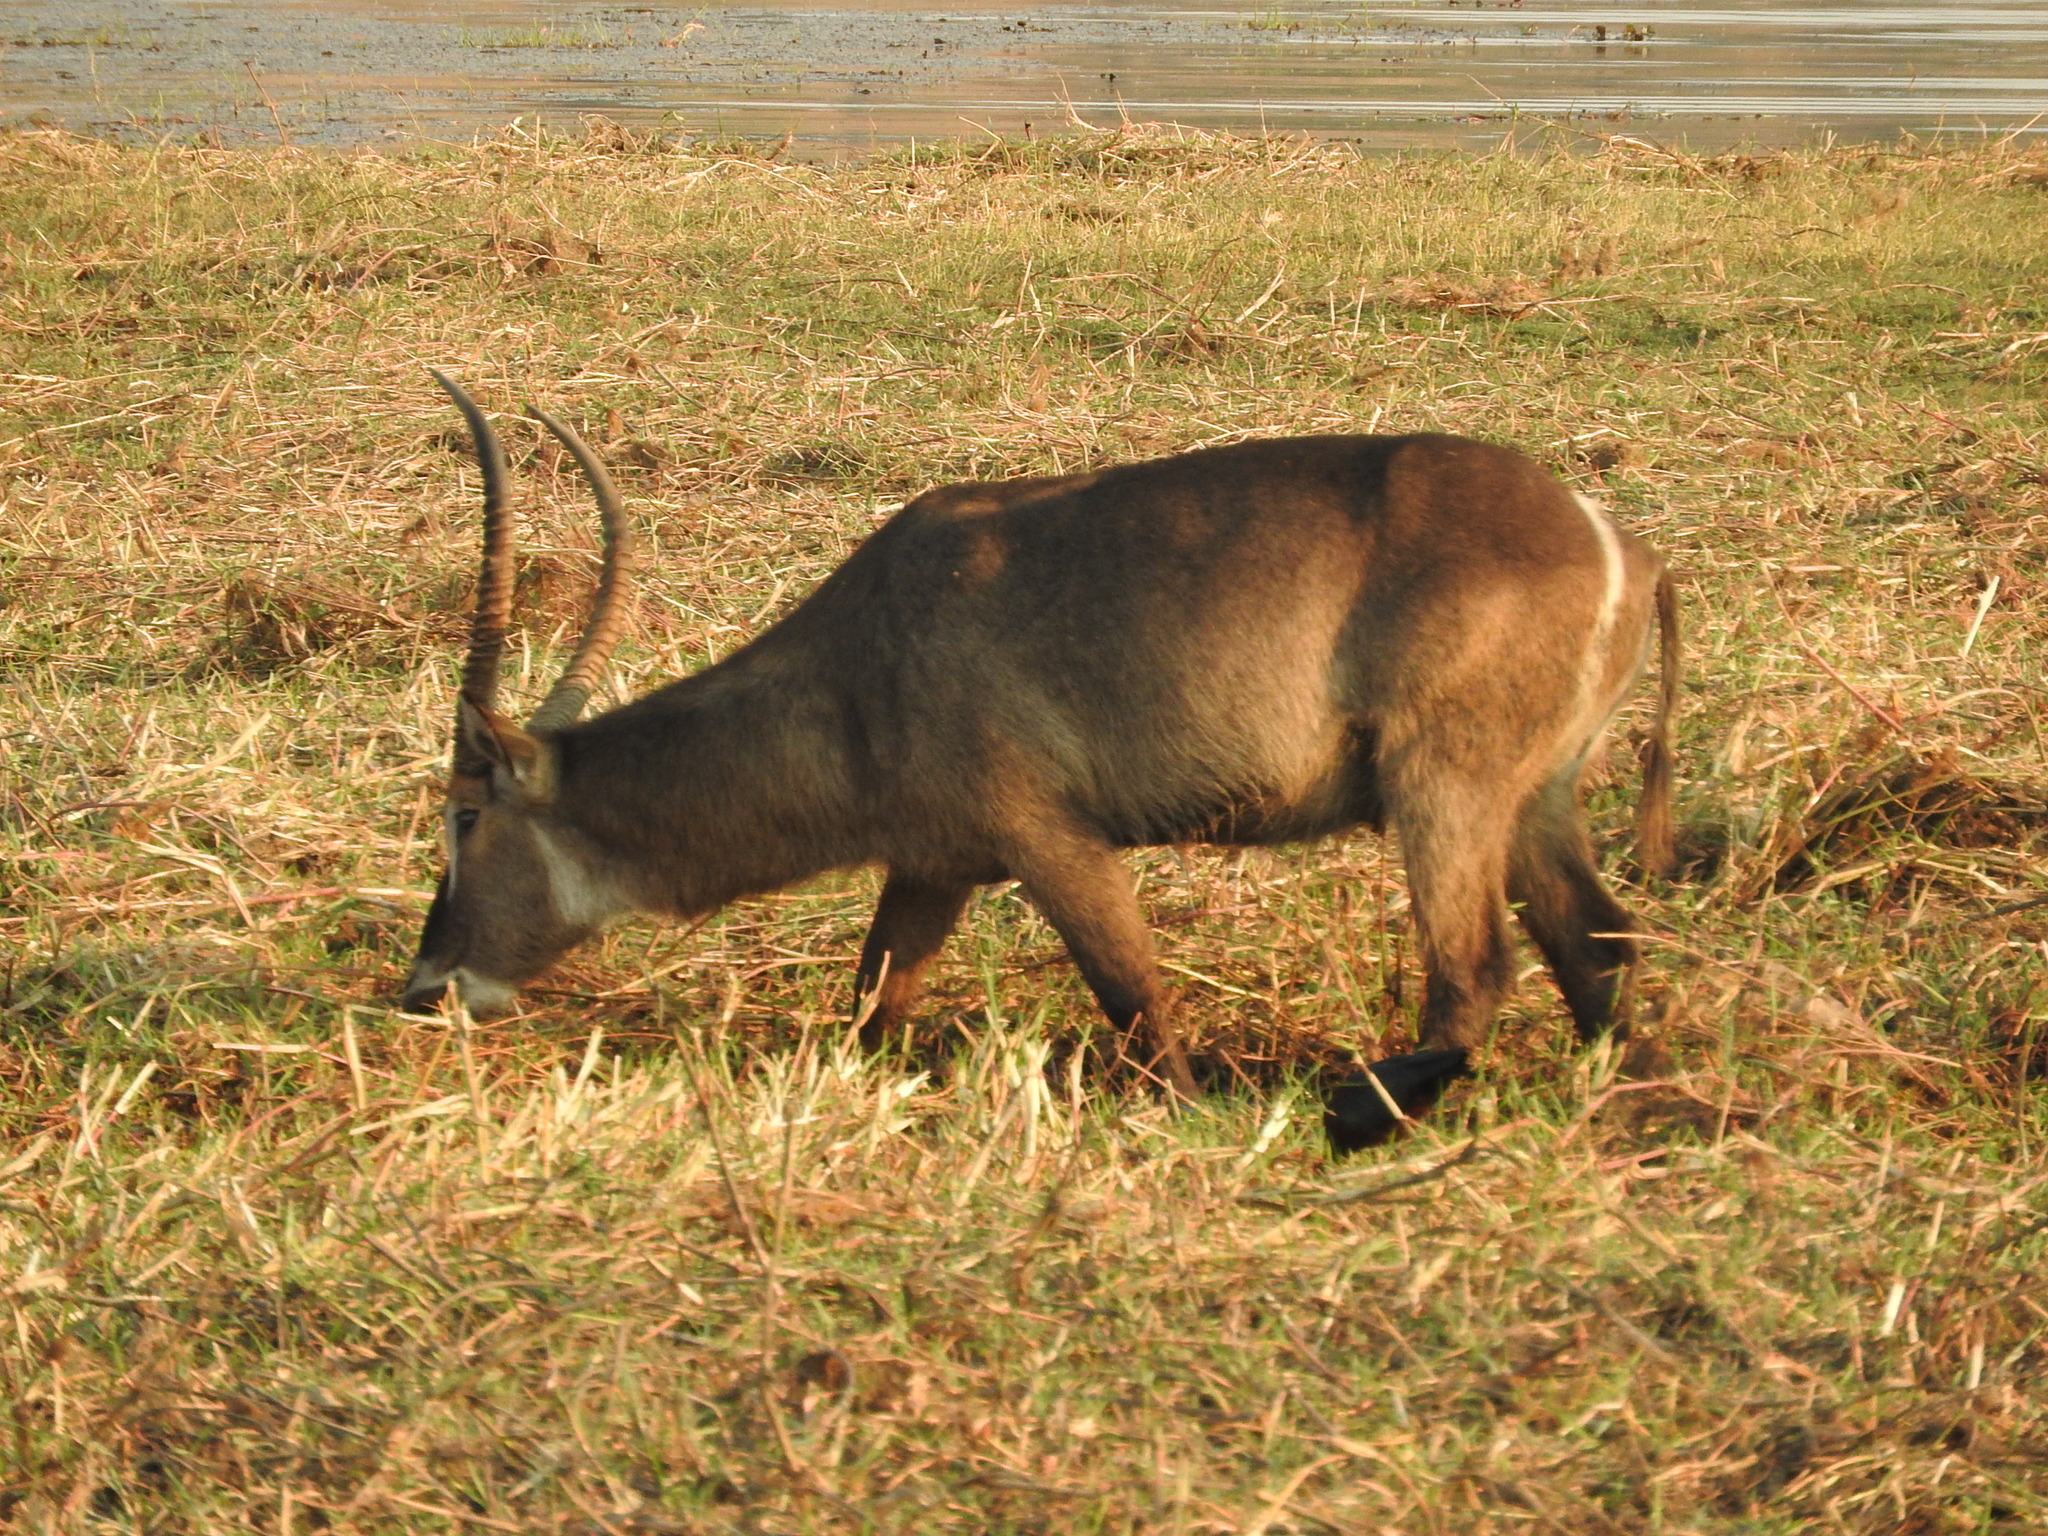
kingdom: Animalia
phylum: Chordata
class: Mammalia
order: Artiodactyla
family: Bovidae
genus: Kobus
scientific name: Kobus ellipsiprymnus
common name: Waterbuck
